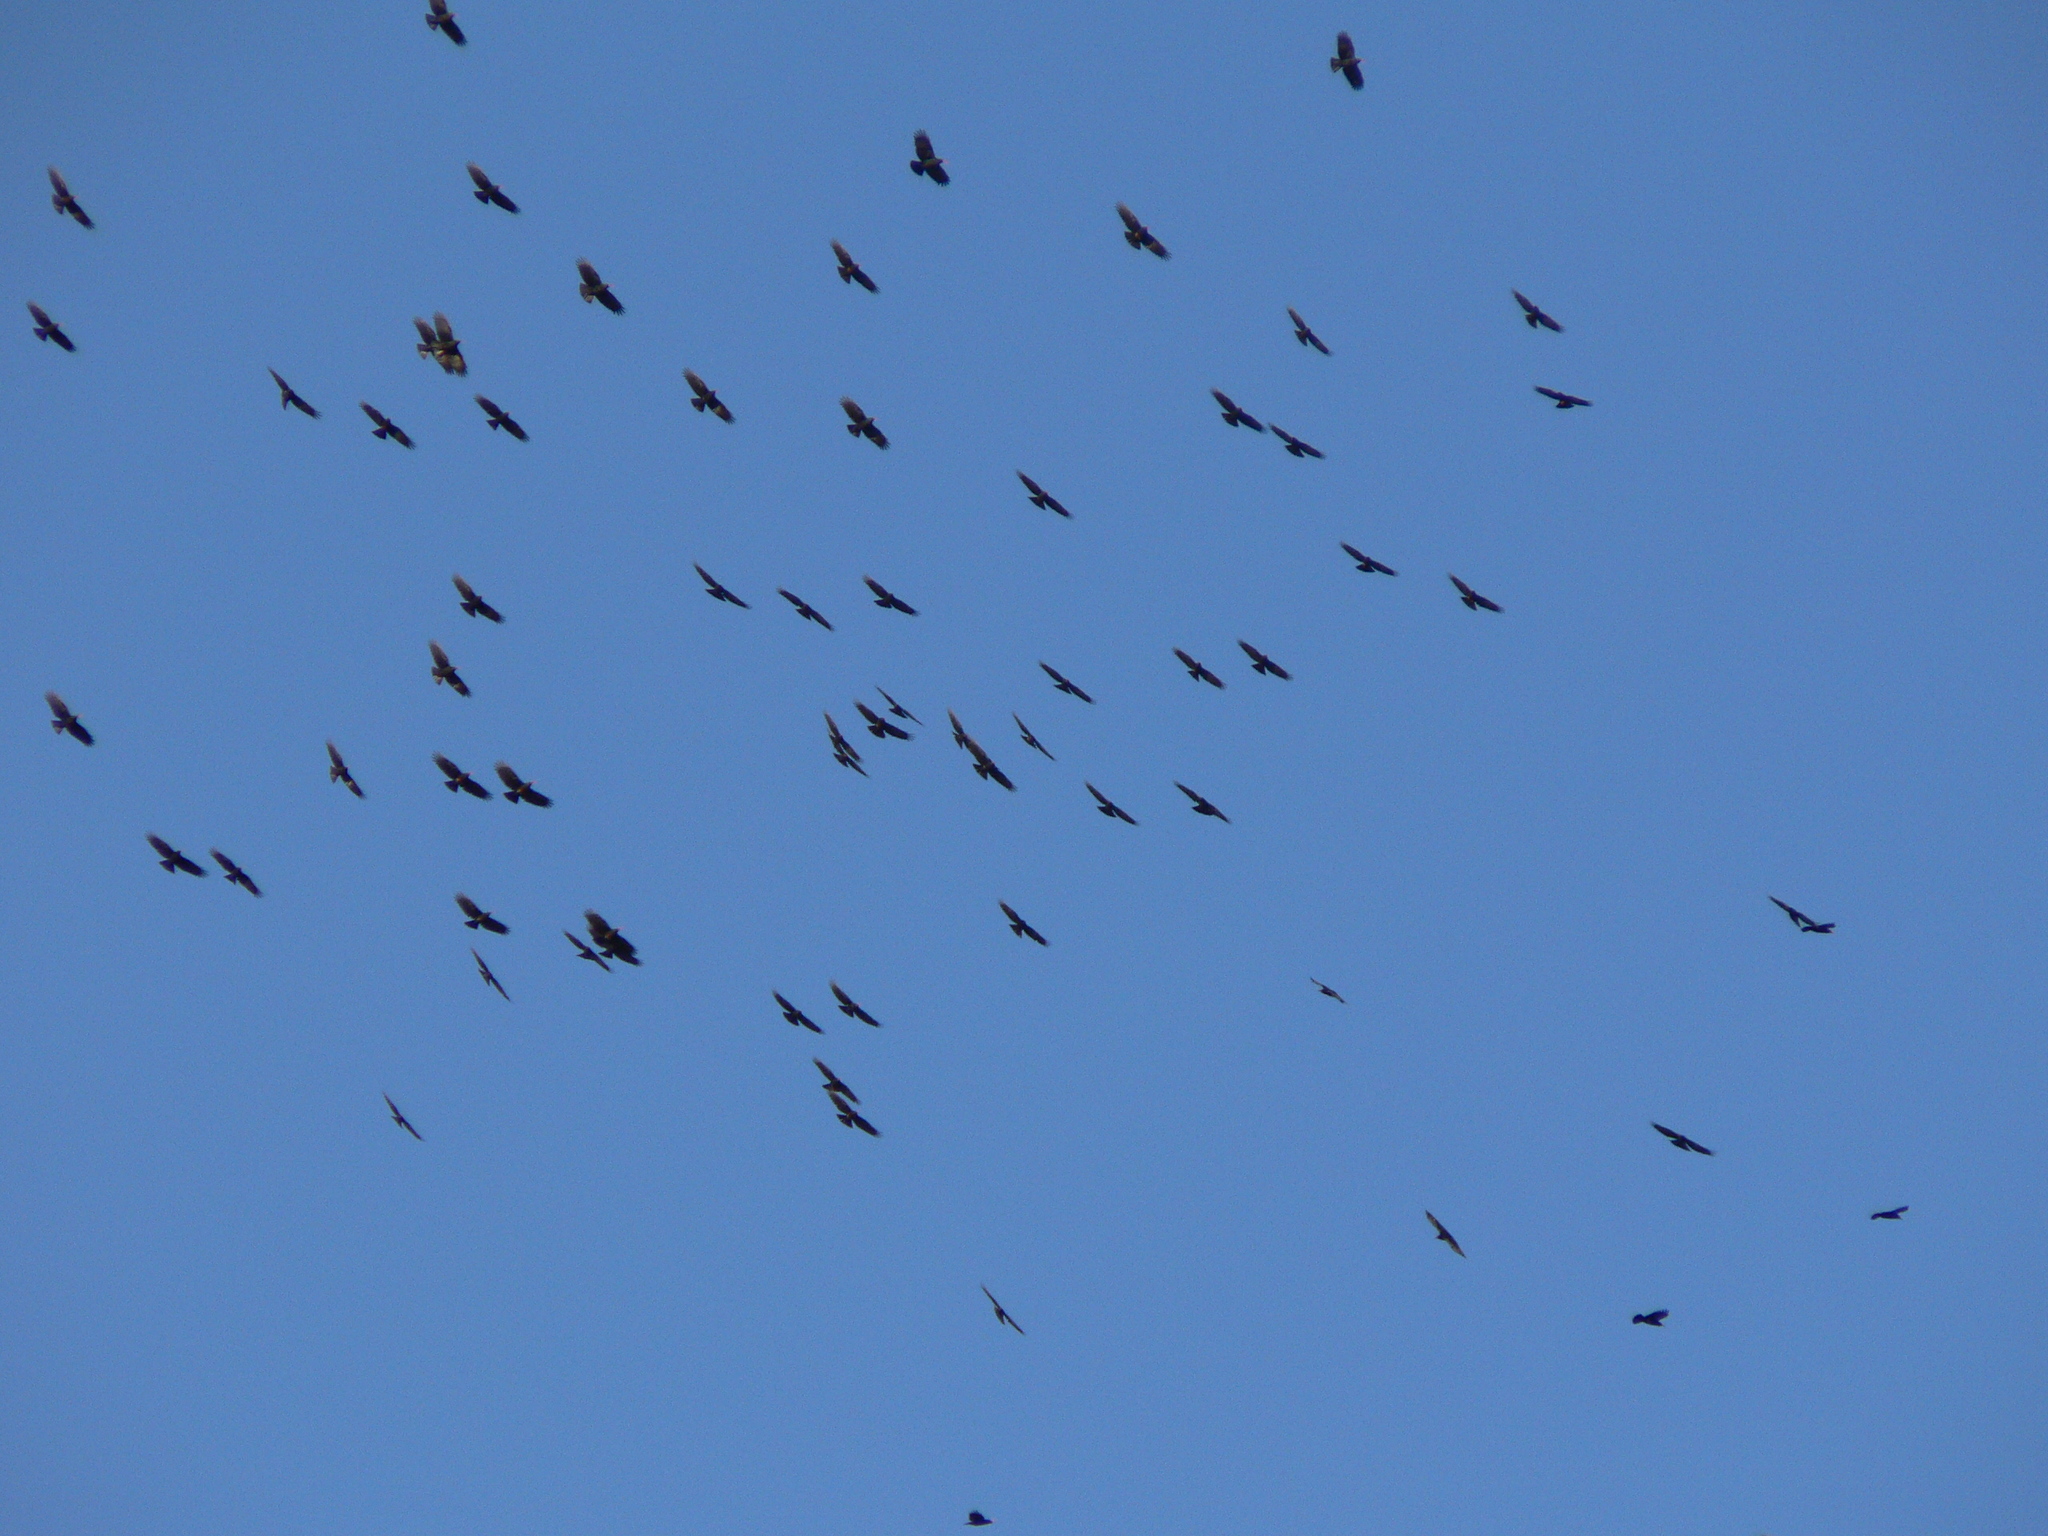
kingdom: Animalia
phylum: Chordata
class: Aves
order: Passeriformes
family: Corvidae
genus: Pyrrhocorax
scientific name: Pyrrhocorax pyrrhocorax
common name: Red-billed chough
